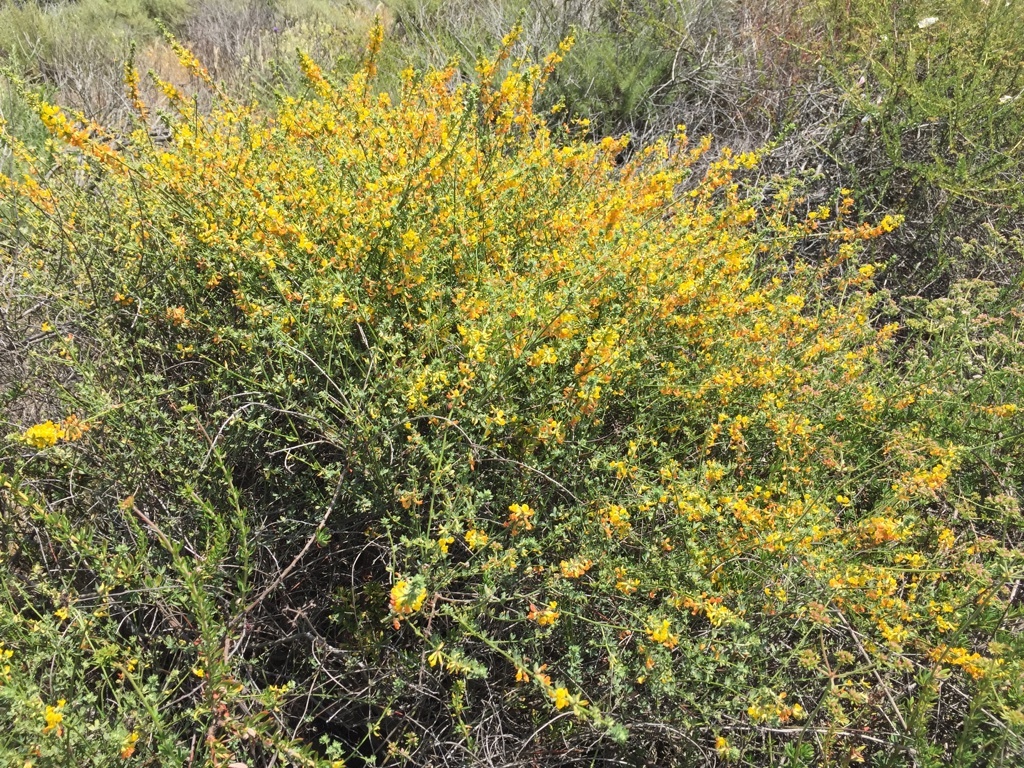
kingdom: Plantae
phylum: Tracheophyta
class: Magnoliopsida
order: Fabales
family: Fabaceae
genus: Acmispon
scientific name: Acmispon glaber
